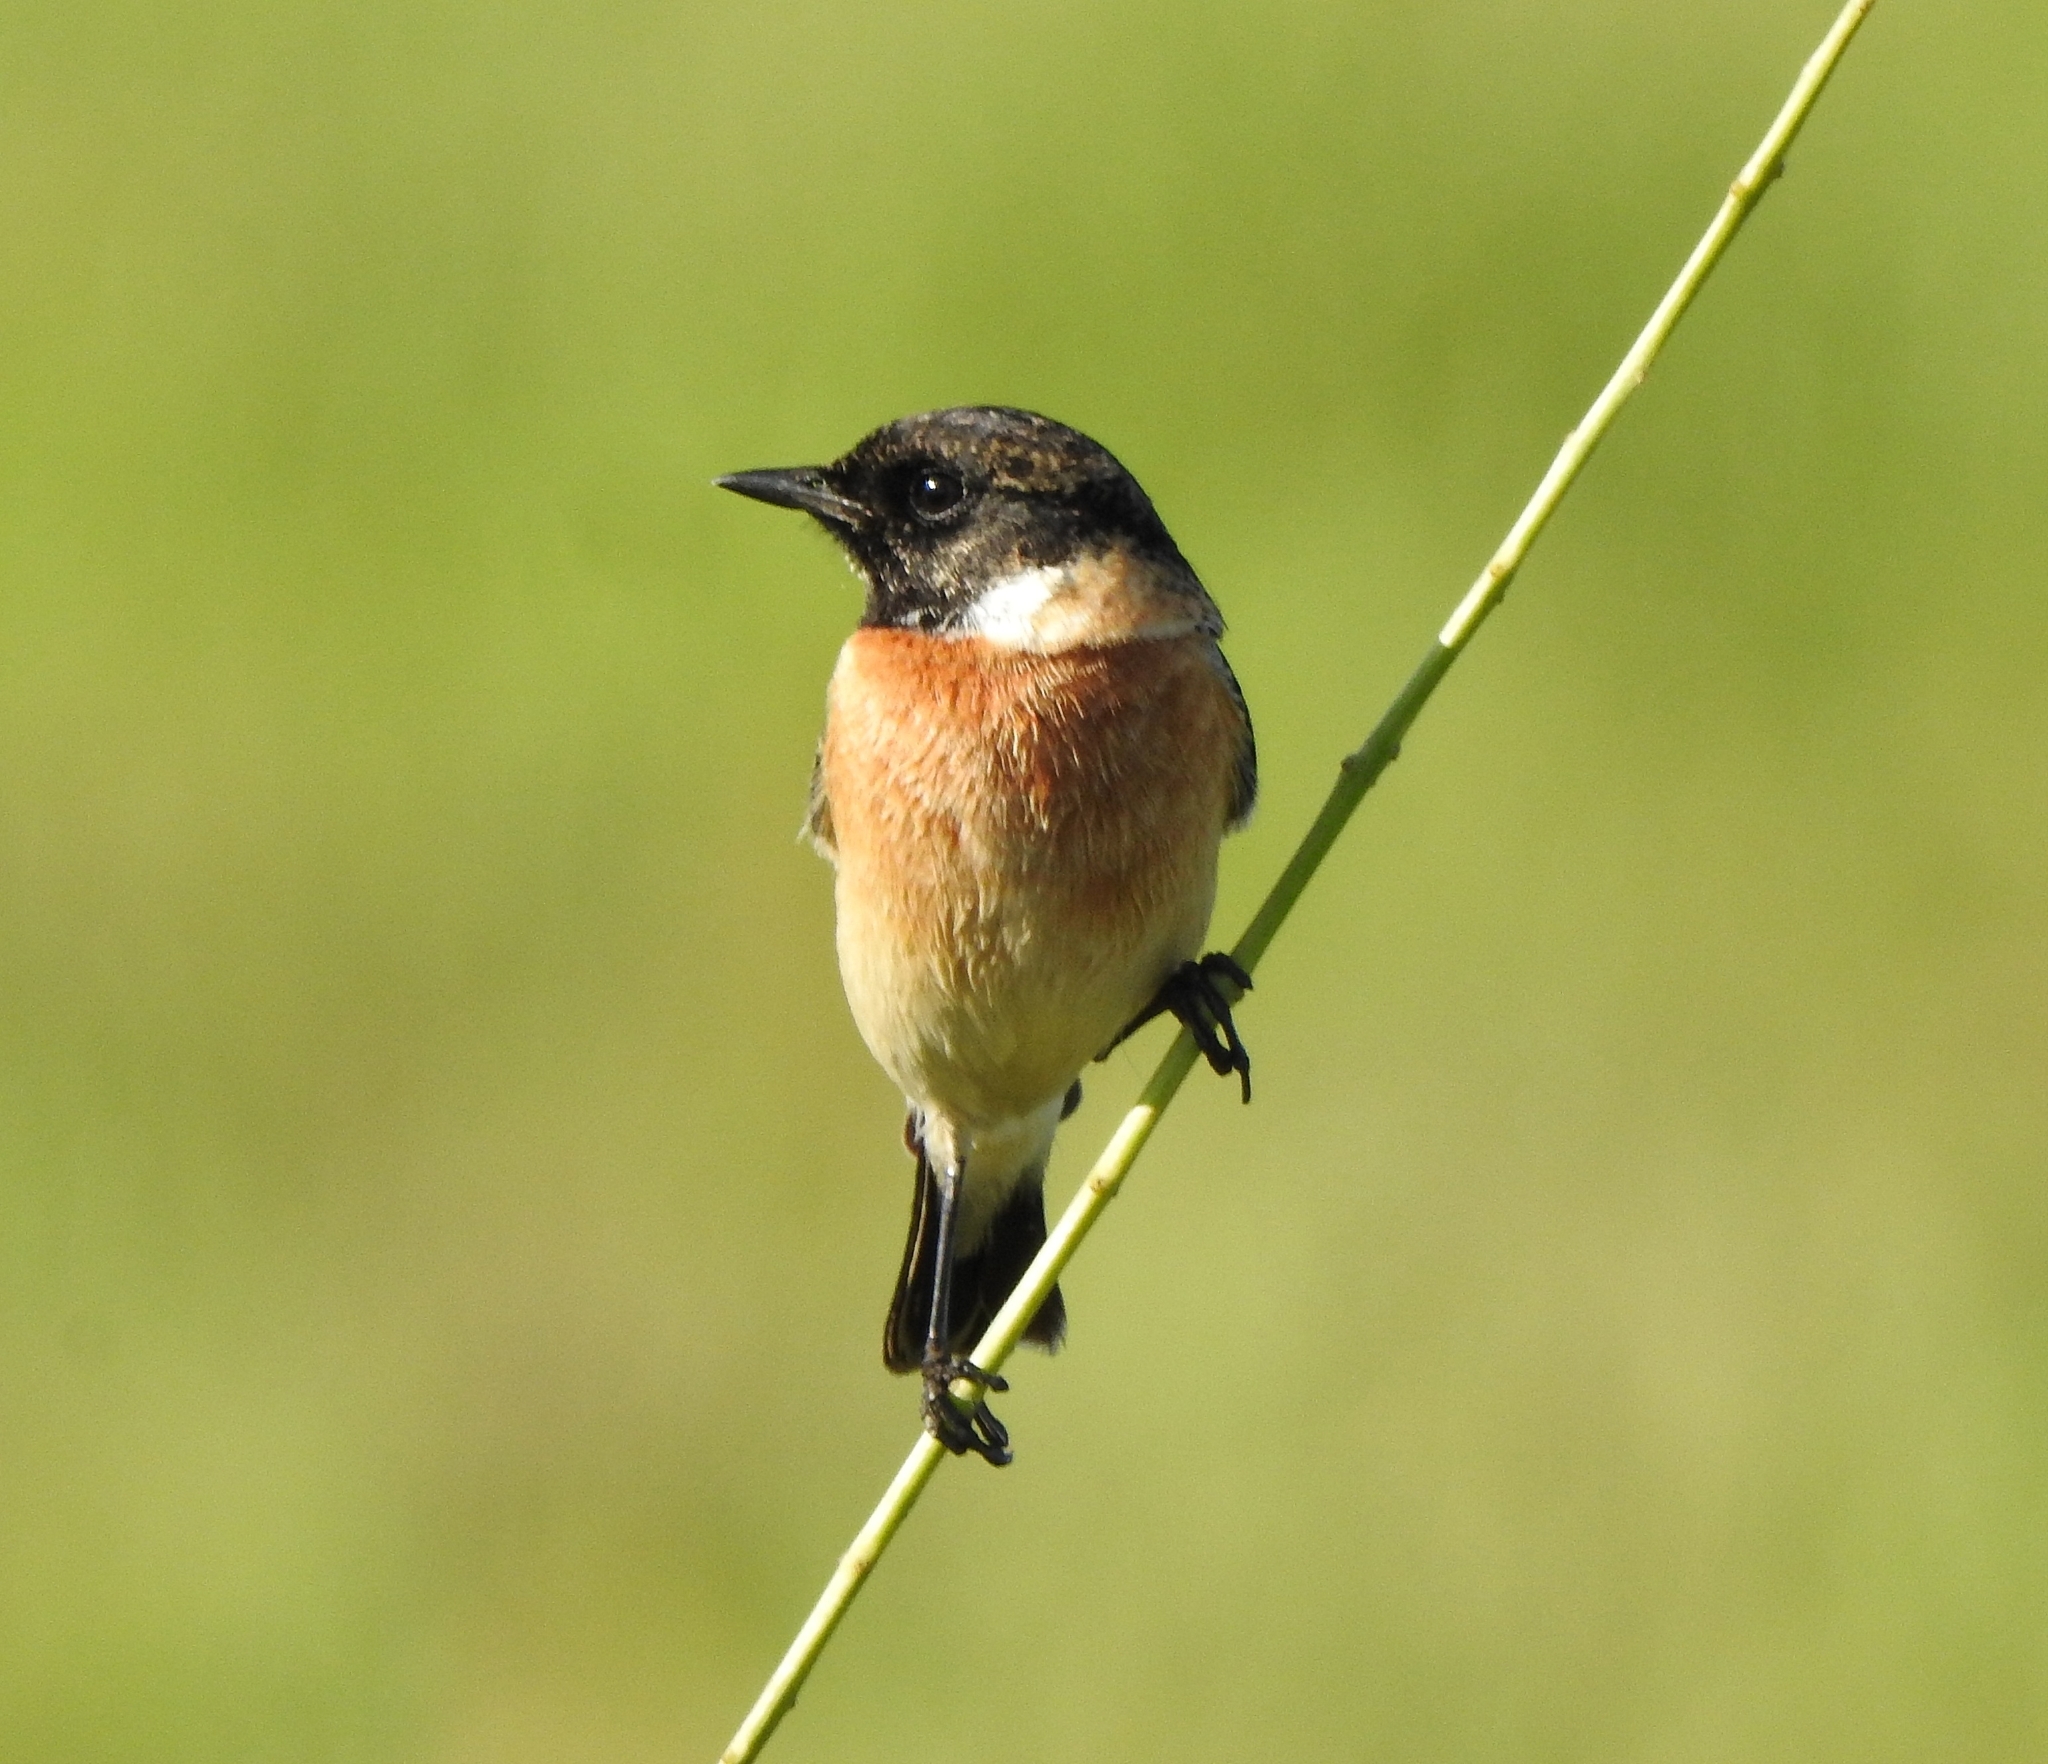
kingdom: Animalia
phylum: Chordata
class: Aves
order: Passeriformes
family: Muscicapidae
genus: Saxicola
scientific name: Saxicola maurus
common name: Siberian stonechat
